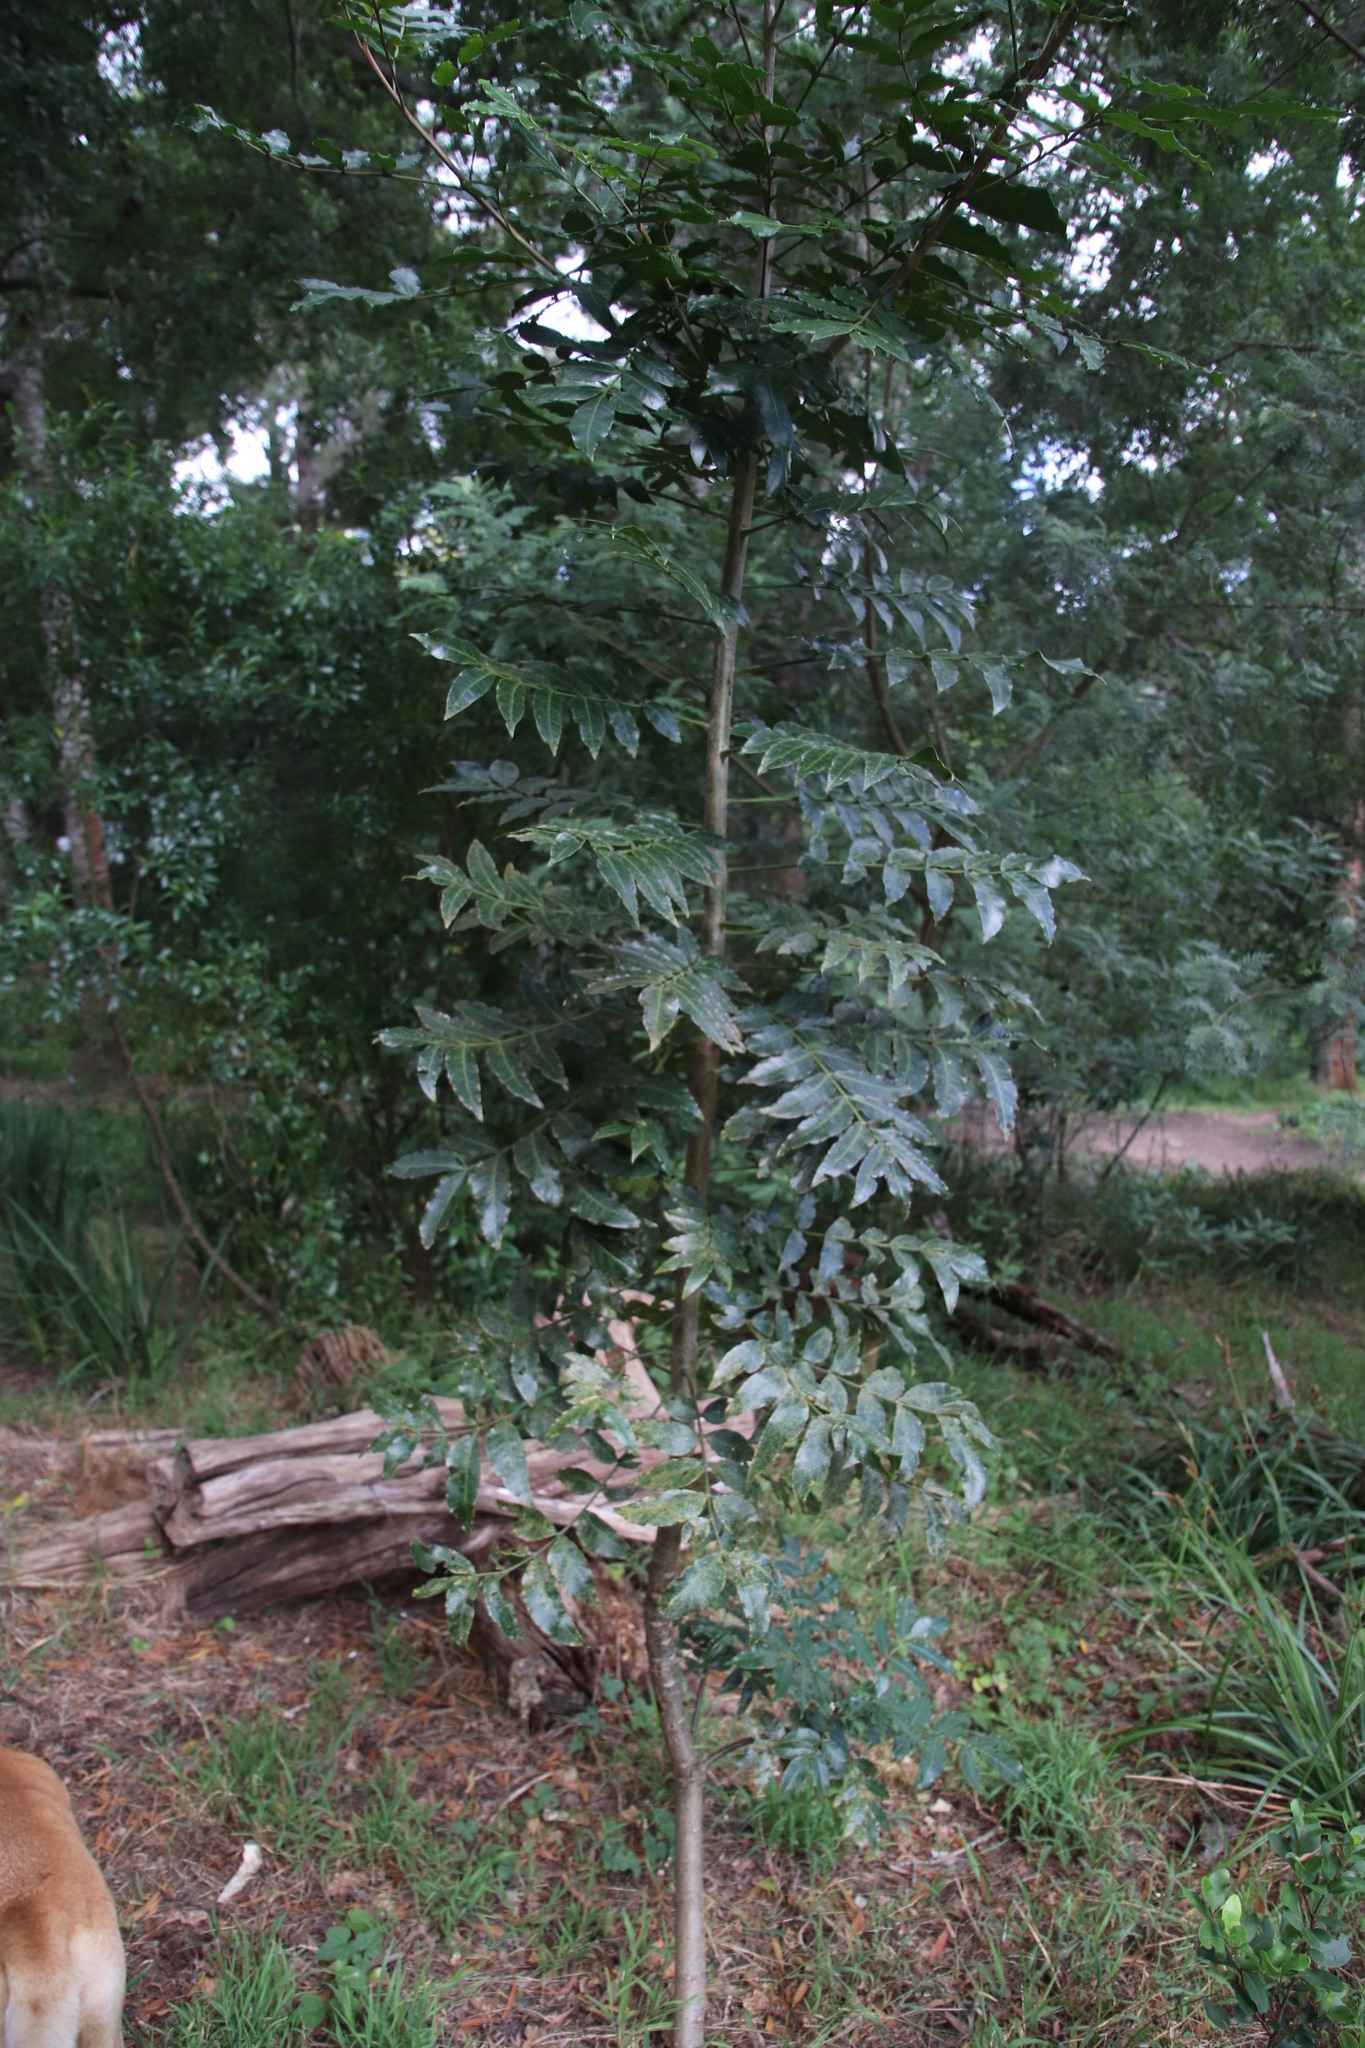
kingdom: Plantae
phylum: Tracheophyta
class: Magnoliopsida
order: Sapindales
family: Meliaceae
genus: Ekebergia
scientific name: Ekebergia capensis
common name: Cape-ash
